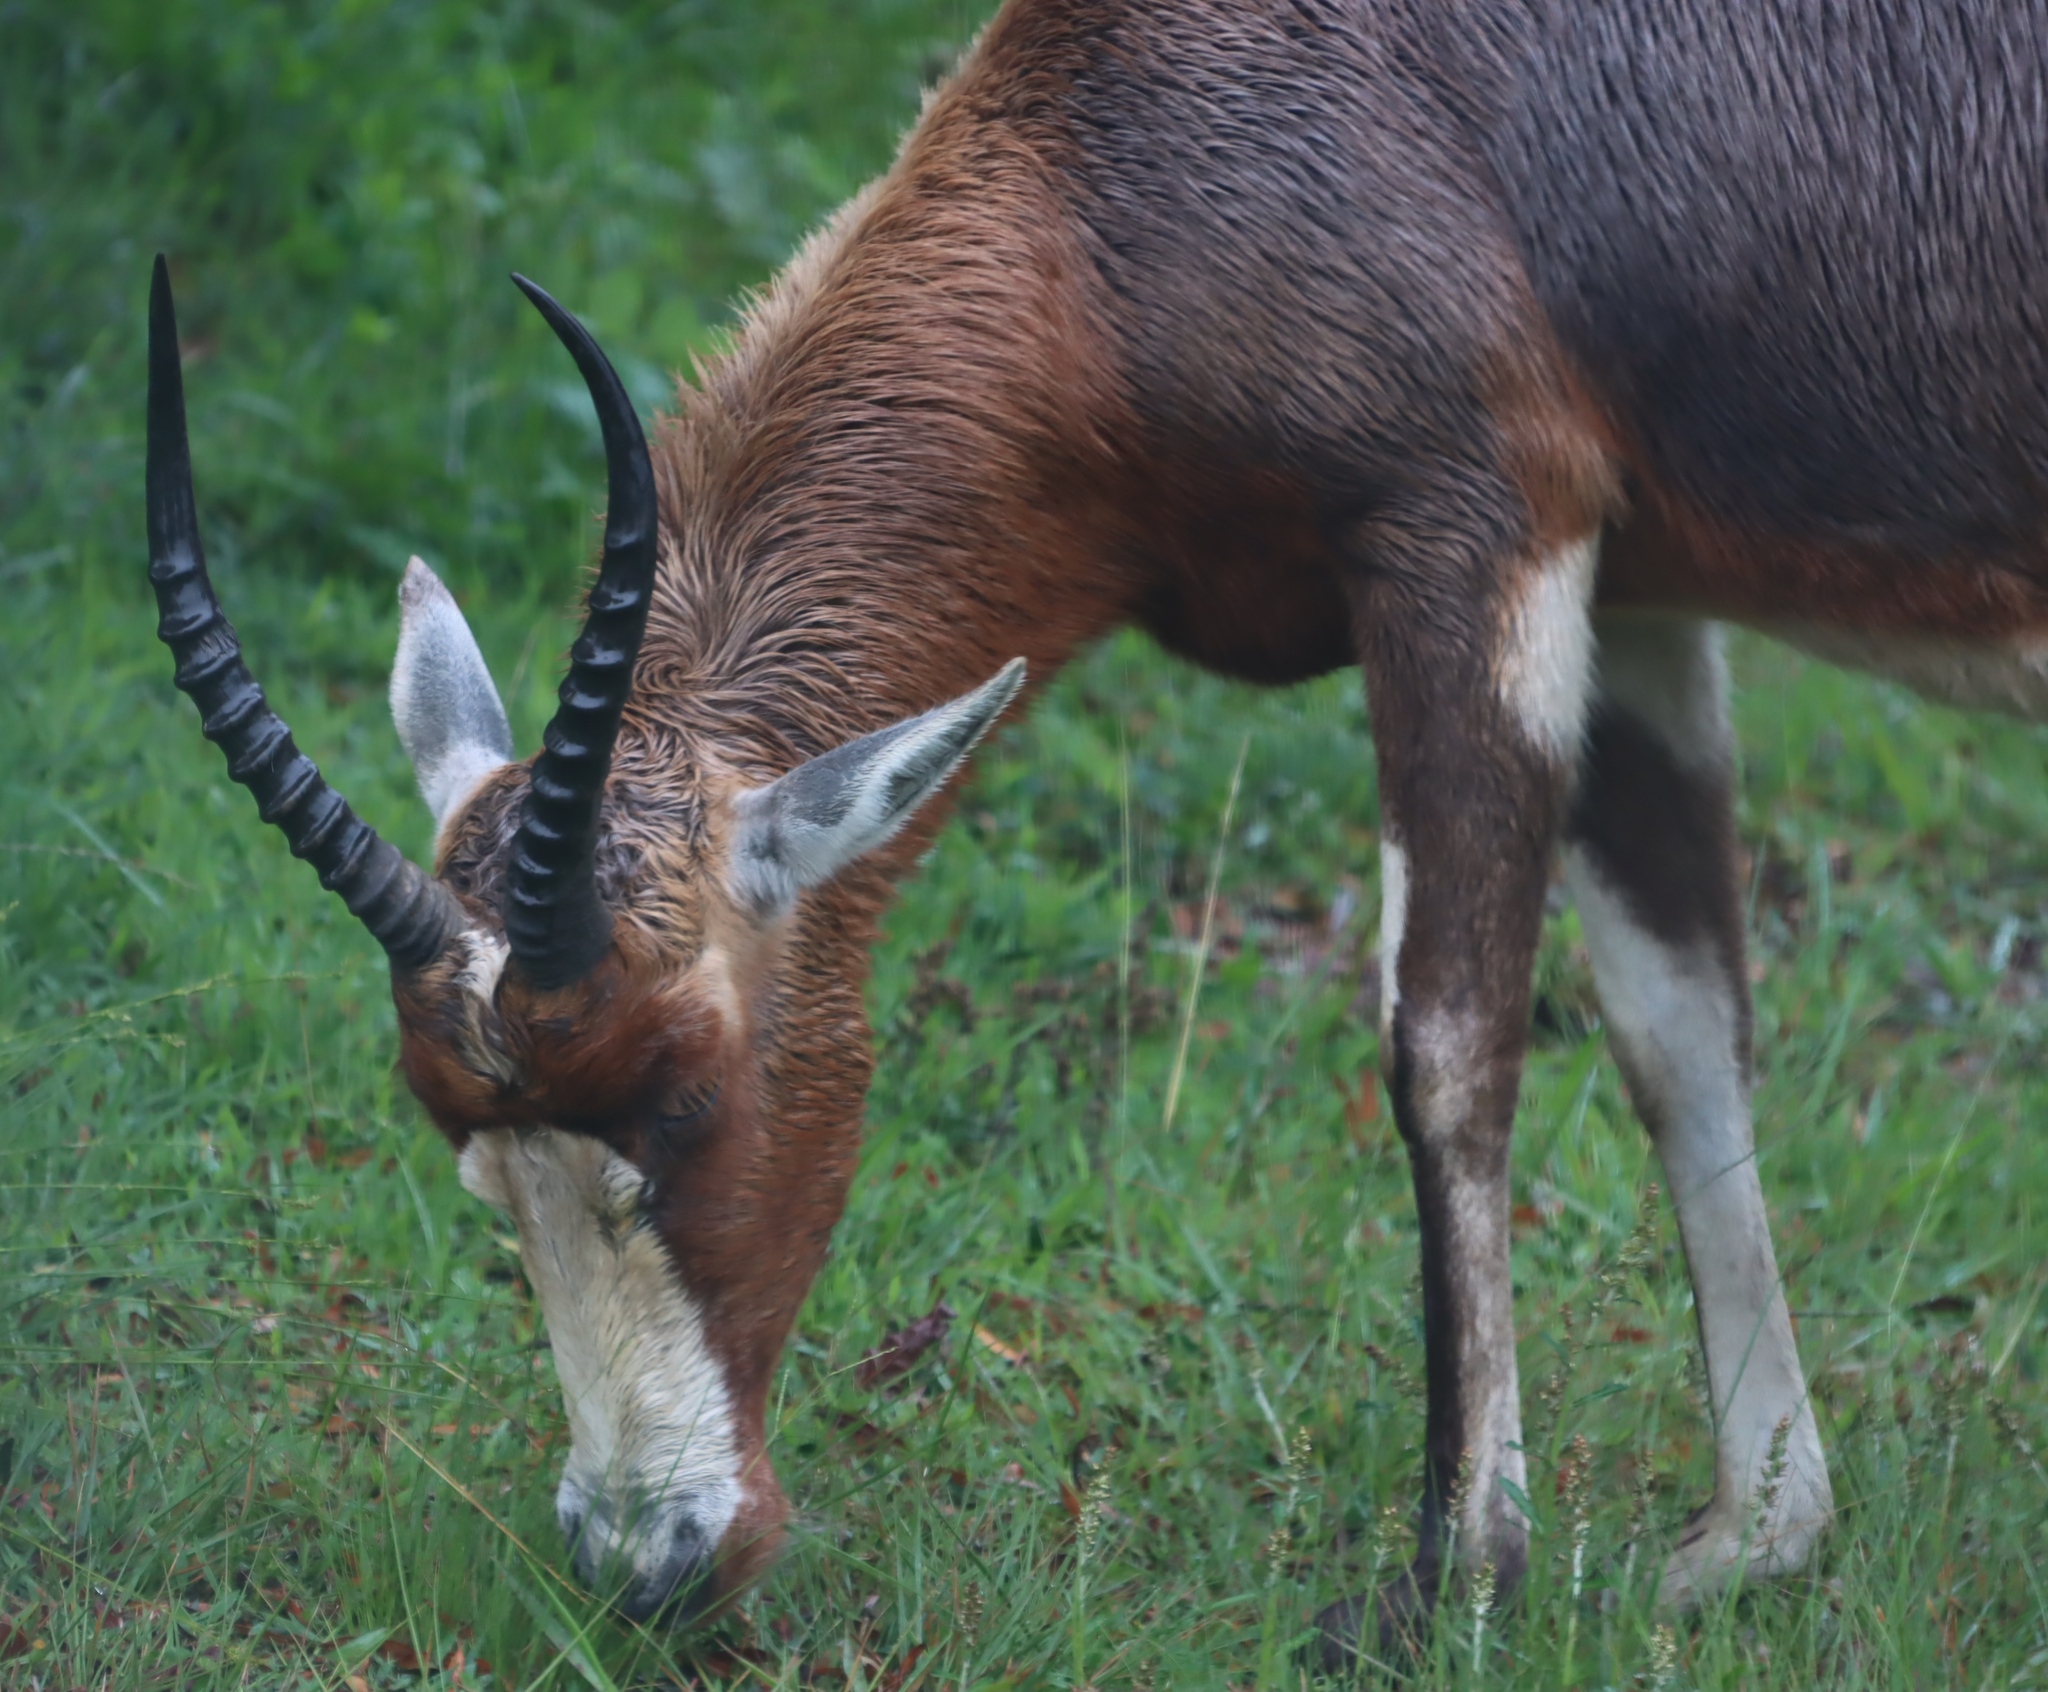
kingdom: Animalia
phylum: Chordata
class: Mammalia
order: Artiodactyla
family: Bovidae
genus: Damaliscus
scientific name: Damaliscus pygargus
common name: Bontebok
